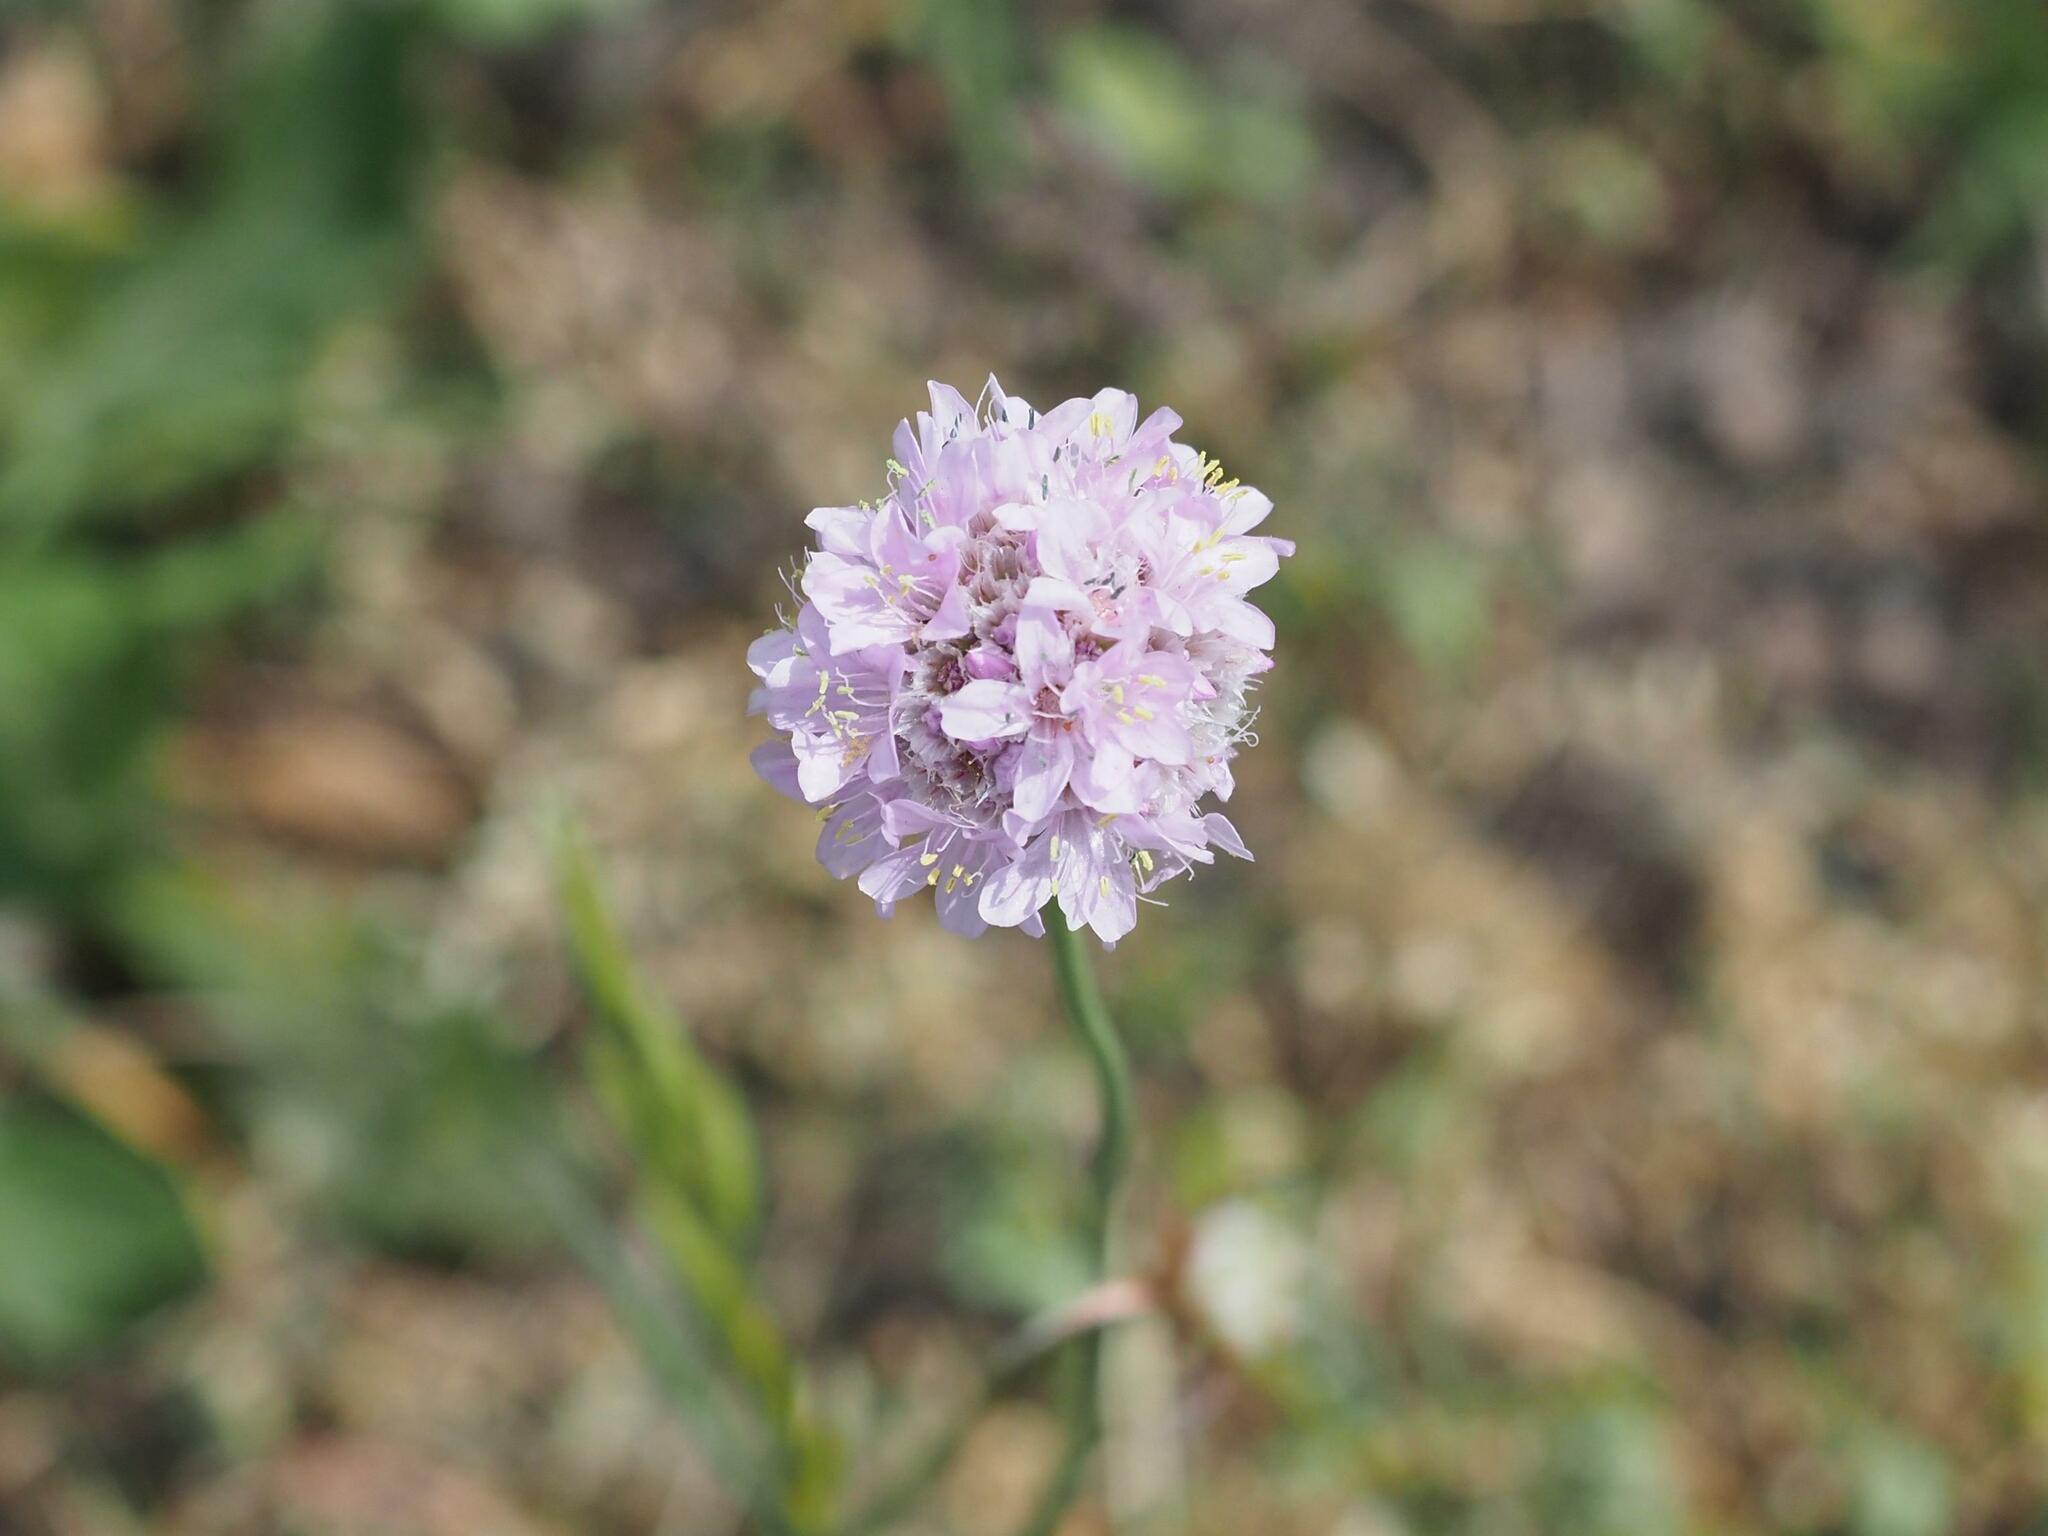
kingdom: Plantae
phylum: Tracheophyta
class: Magnoliopsida
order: Caryophyllales
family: Plumbaginaceae
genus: Armeria
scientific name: Armeria maritima
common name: Thrift
